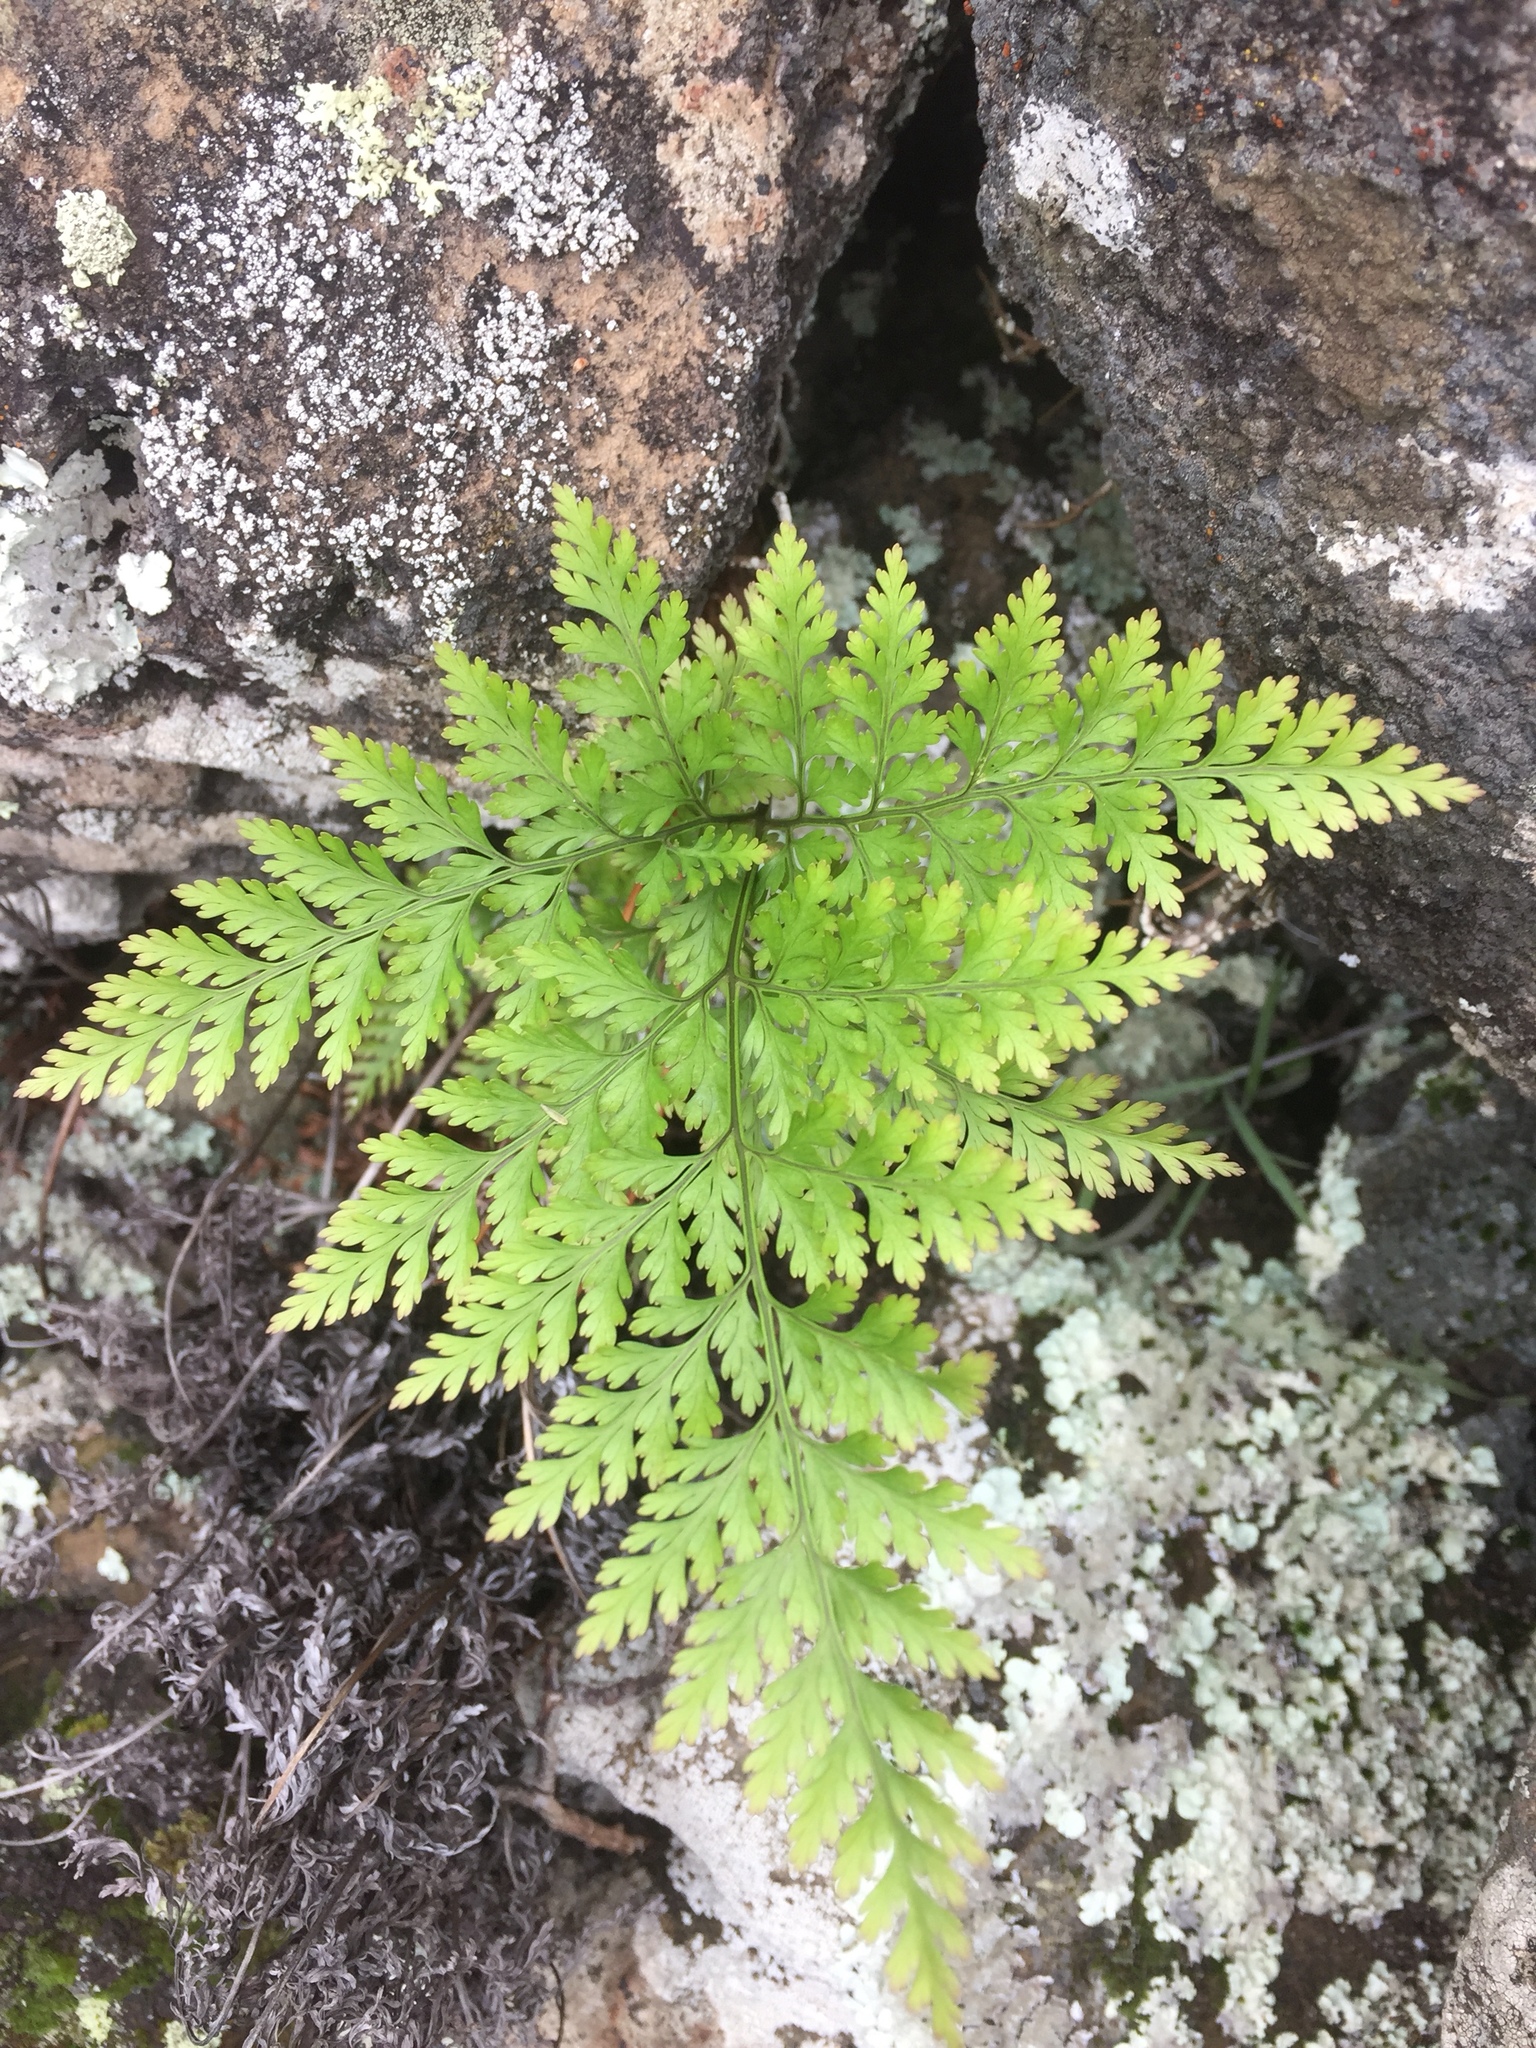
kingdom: Plantae
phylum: Tracheophyta
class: Polypodiopsida
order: Polypodiales
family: Davalliaceae
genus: Davallia
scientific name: Davallia canariensis
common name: Hare's-foot fern
